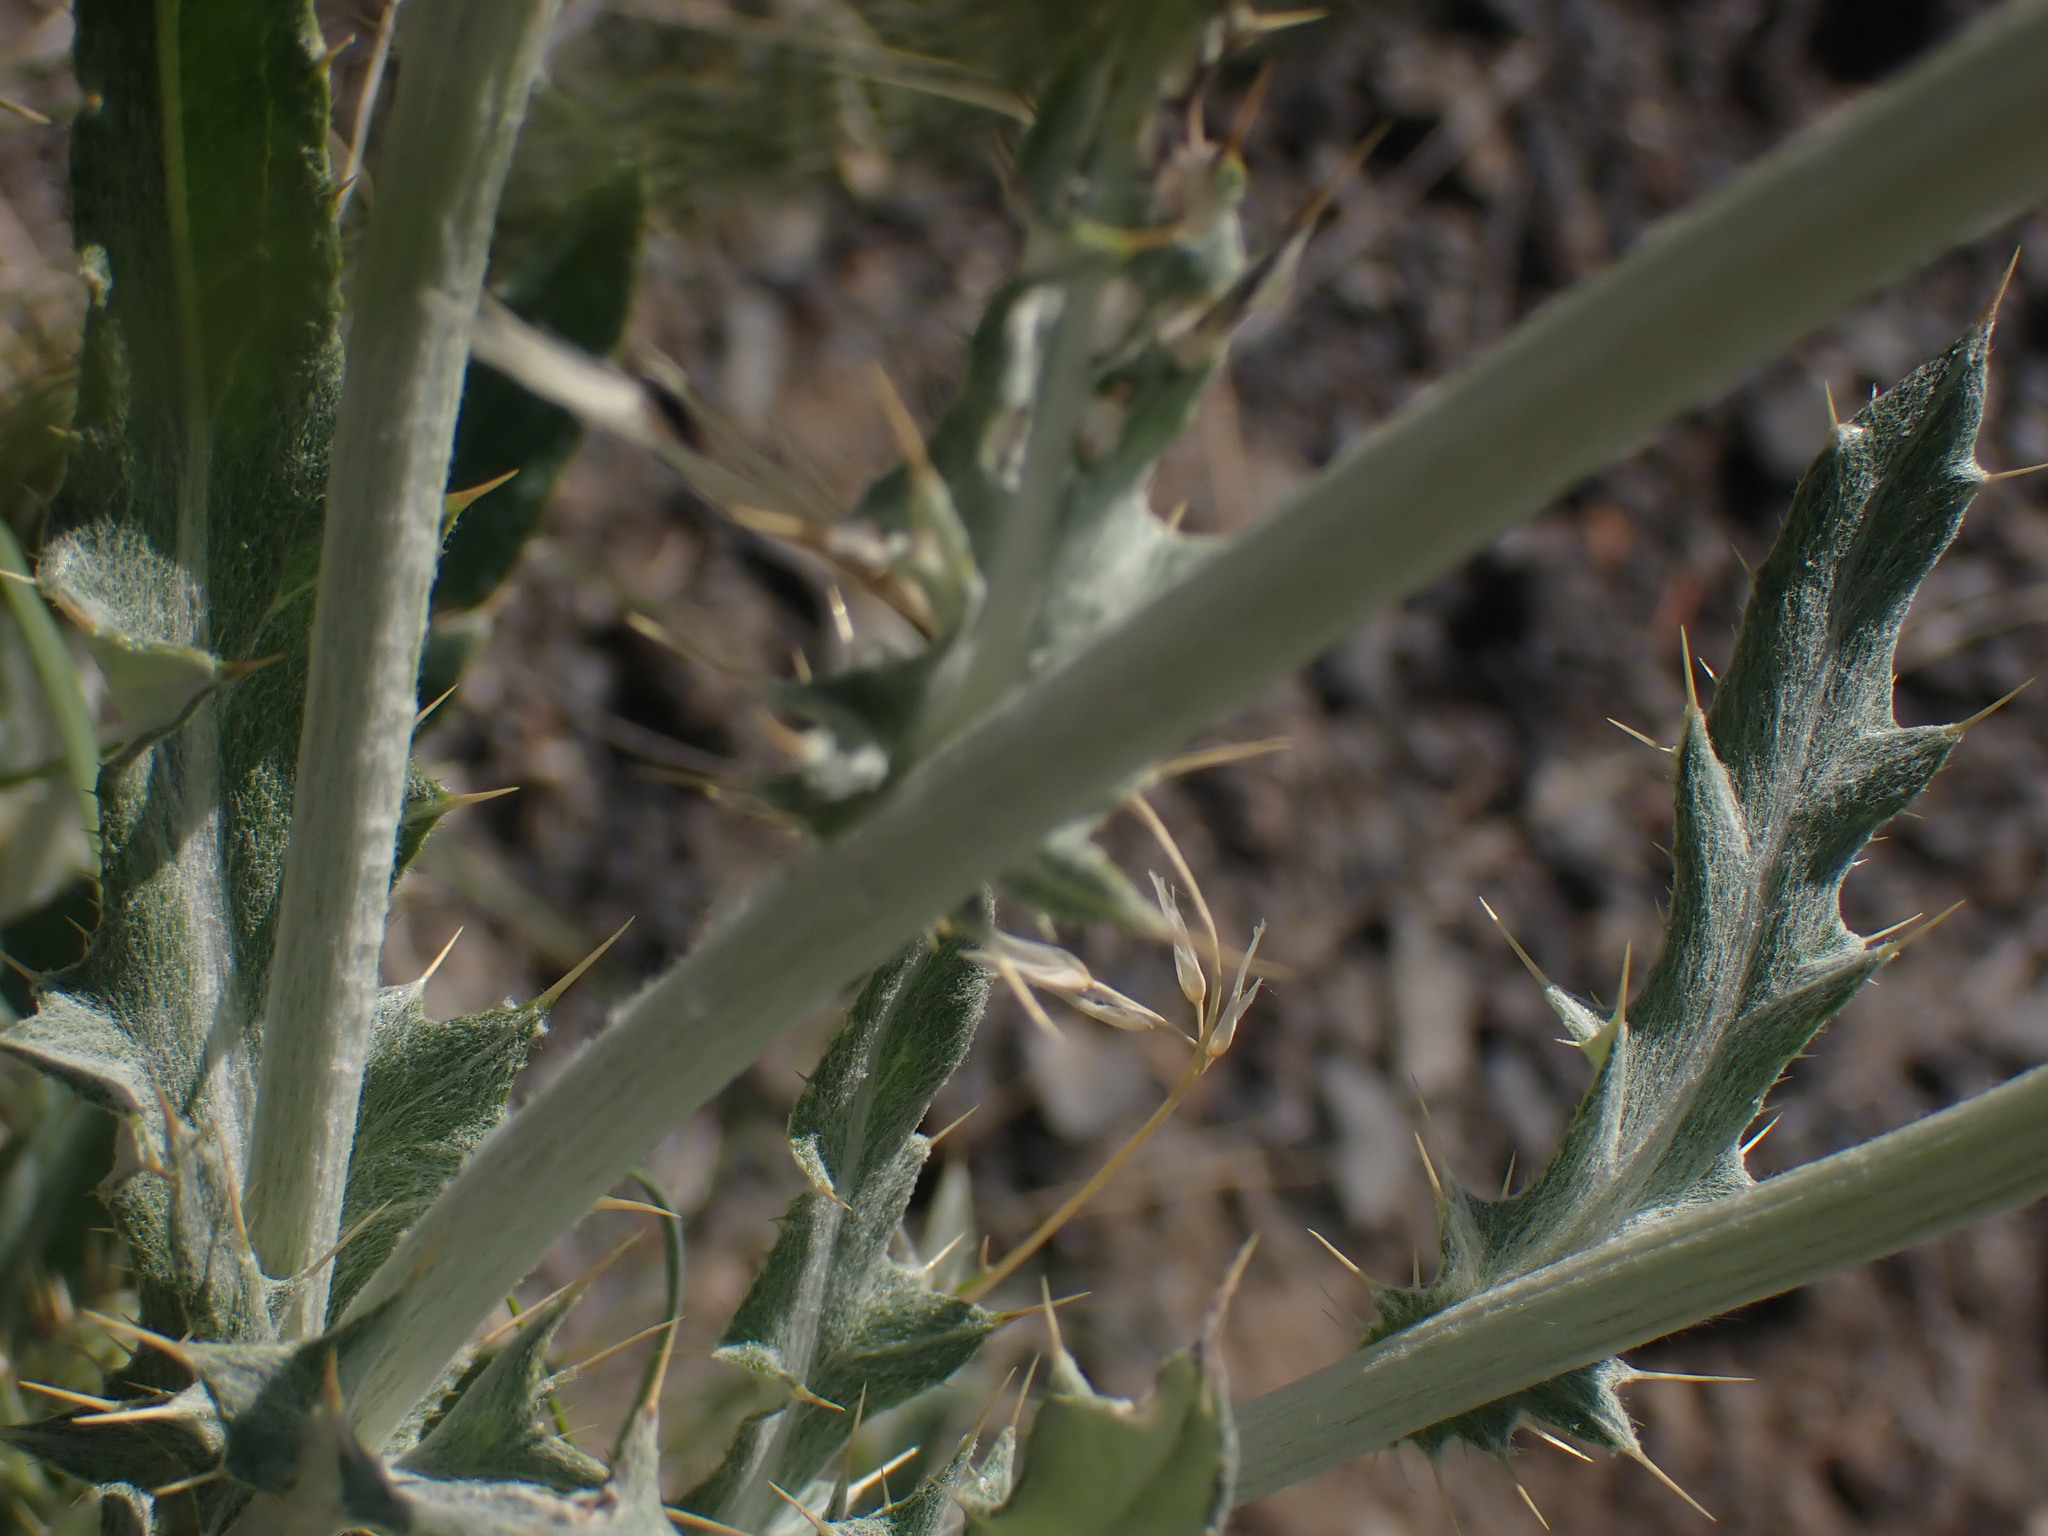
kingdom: Plantae
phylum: Tracheophyta
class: Magnoliopsida
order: Asterales
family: Asteraceae
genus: Cirsium
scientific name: Cirsium undulatum
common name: Pasture thistle
